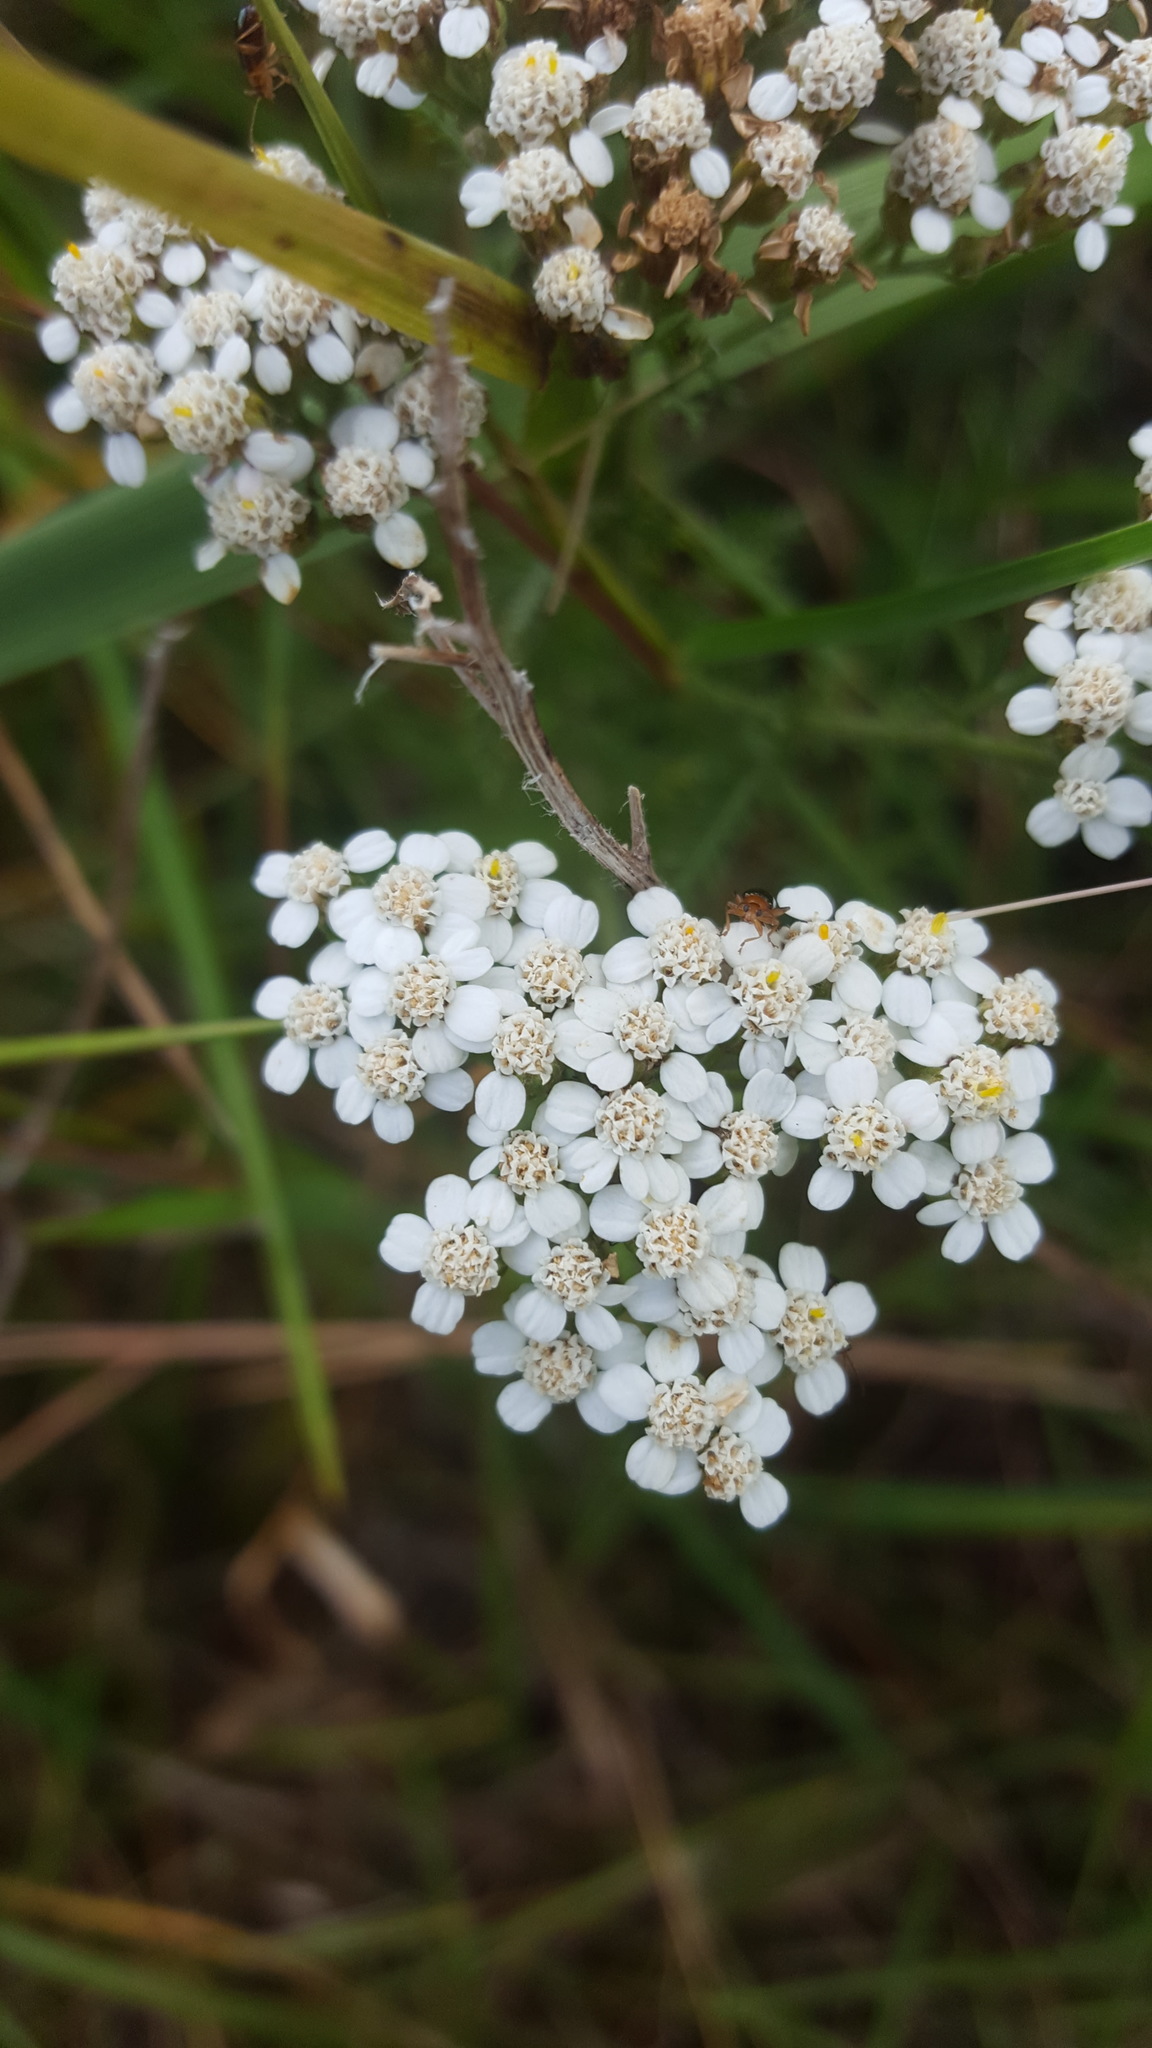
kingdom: Plantae
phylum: Tracheophyta
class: Magnoliopsida
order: Asterales
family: Asteraceae
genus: Achillea
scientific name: Achillea millefolium
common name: Yarrow
